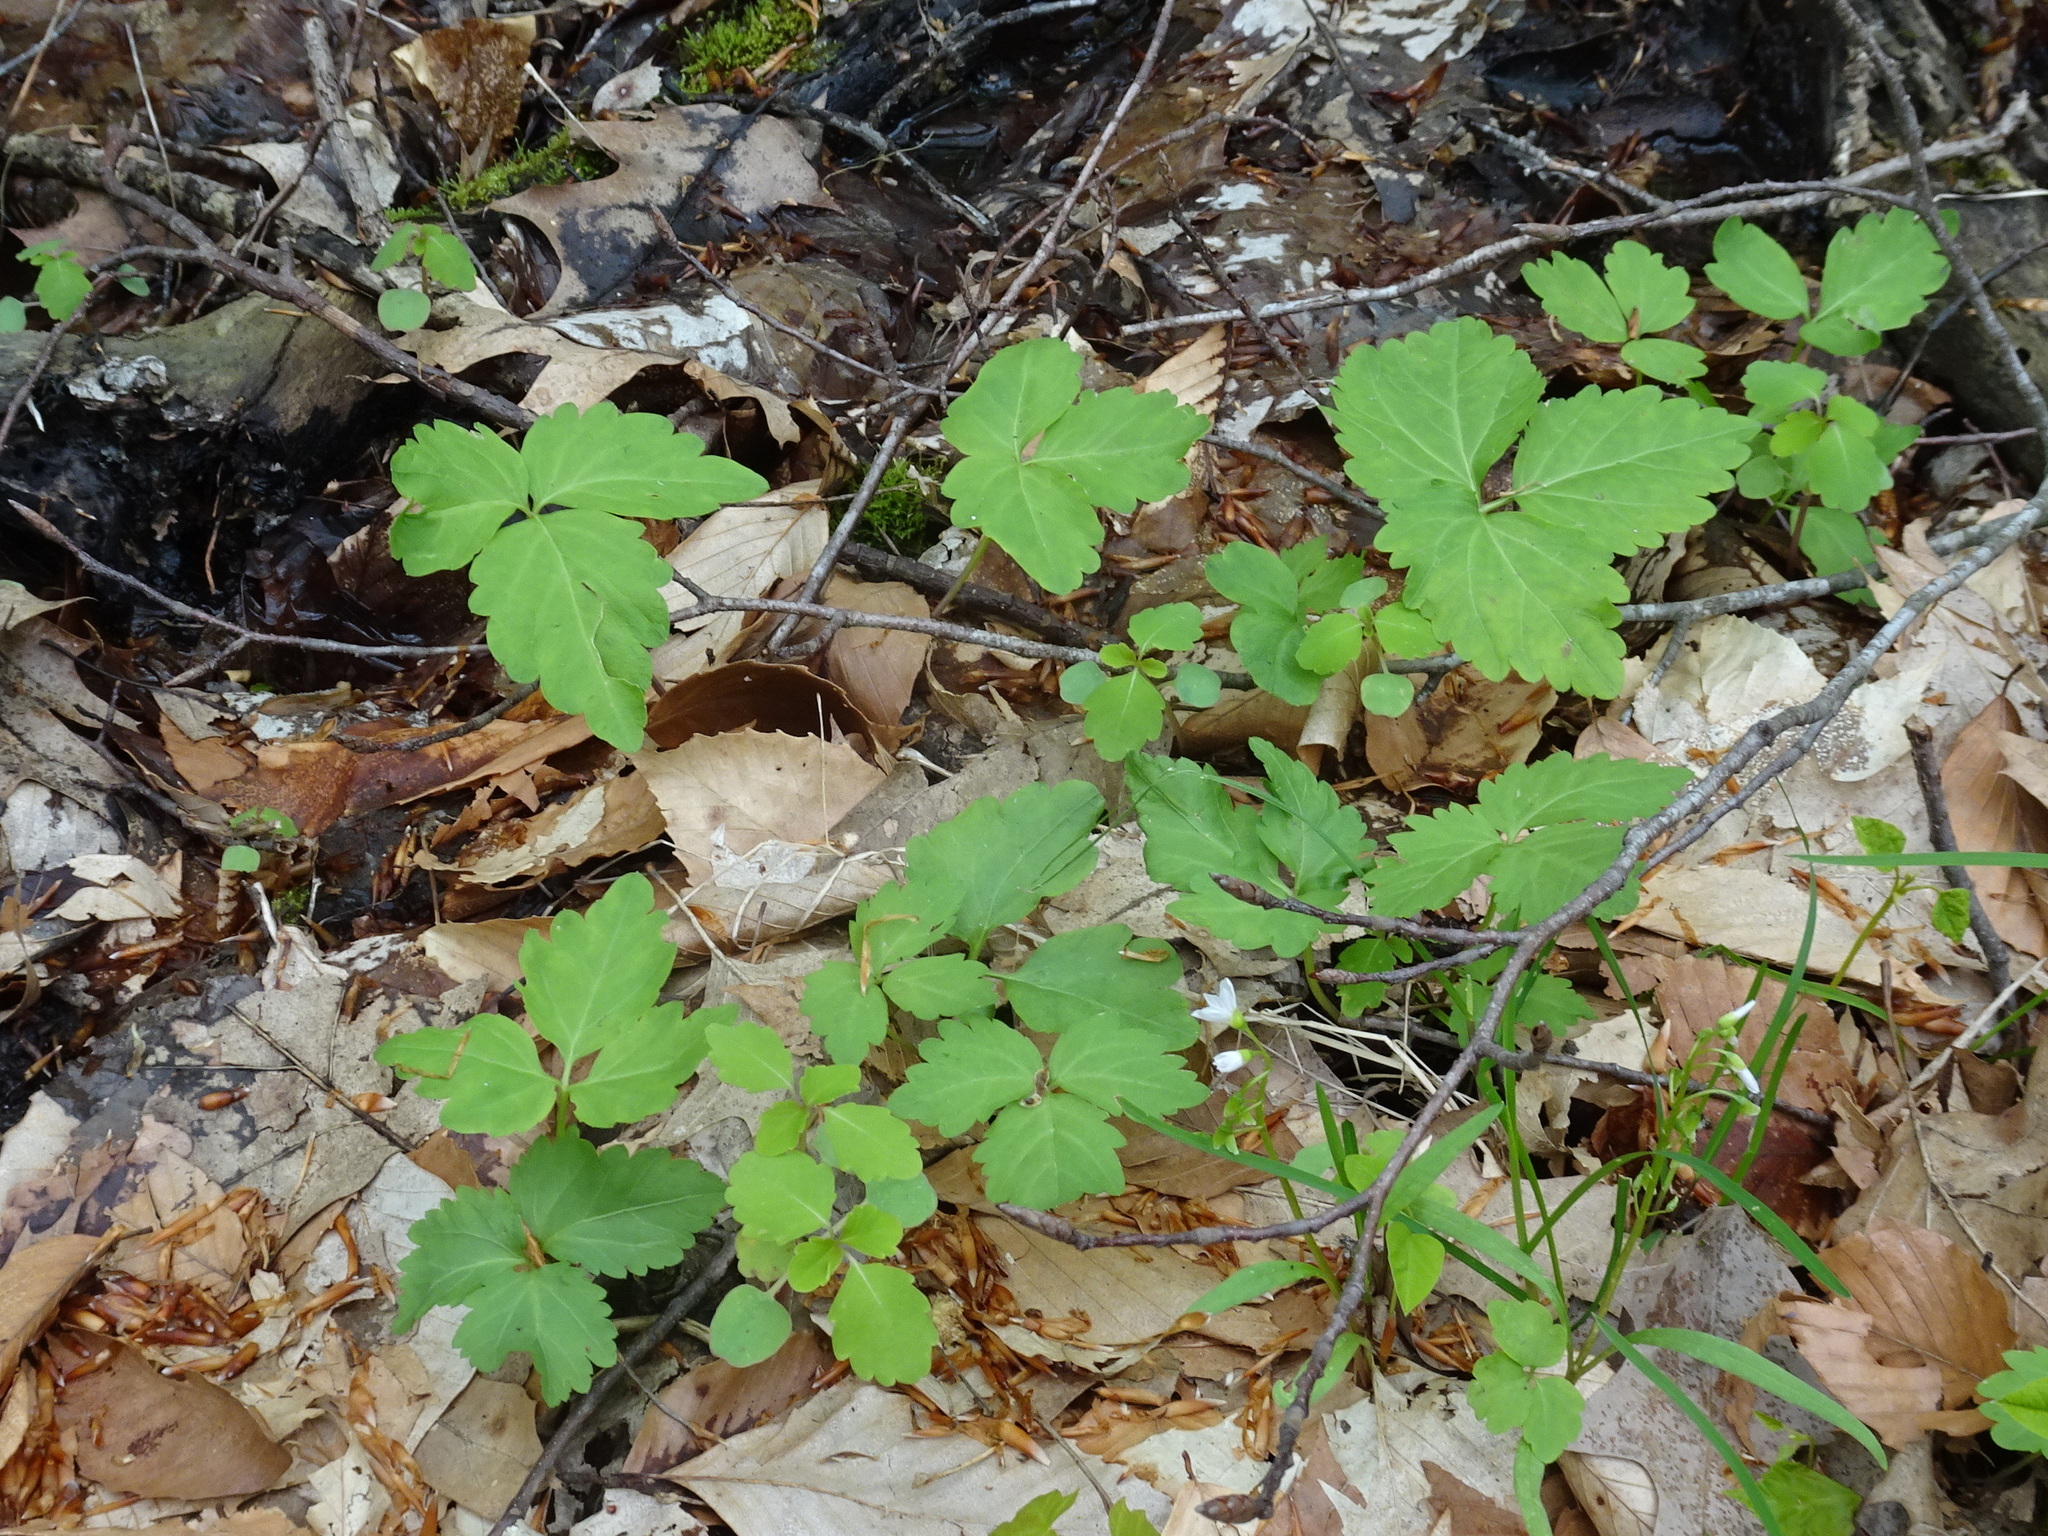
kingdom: Plantae
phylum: Tracheophyta
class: Magnoliopsida
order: Brassicales
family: Brassicaceae
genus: Cardamine
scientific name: Cardamine diphylla
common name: Broad-leaved toothwort
